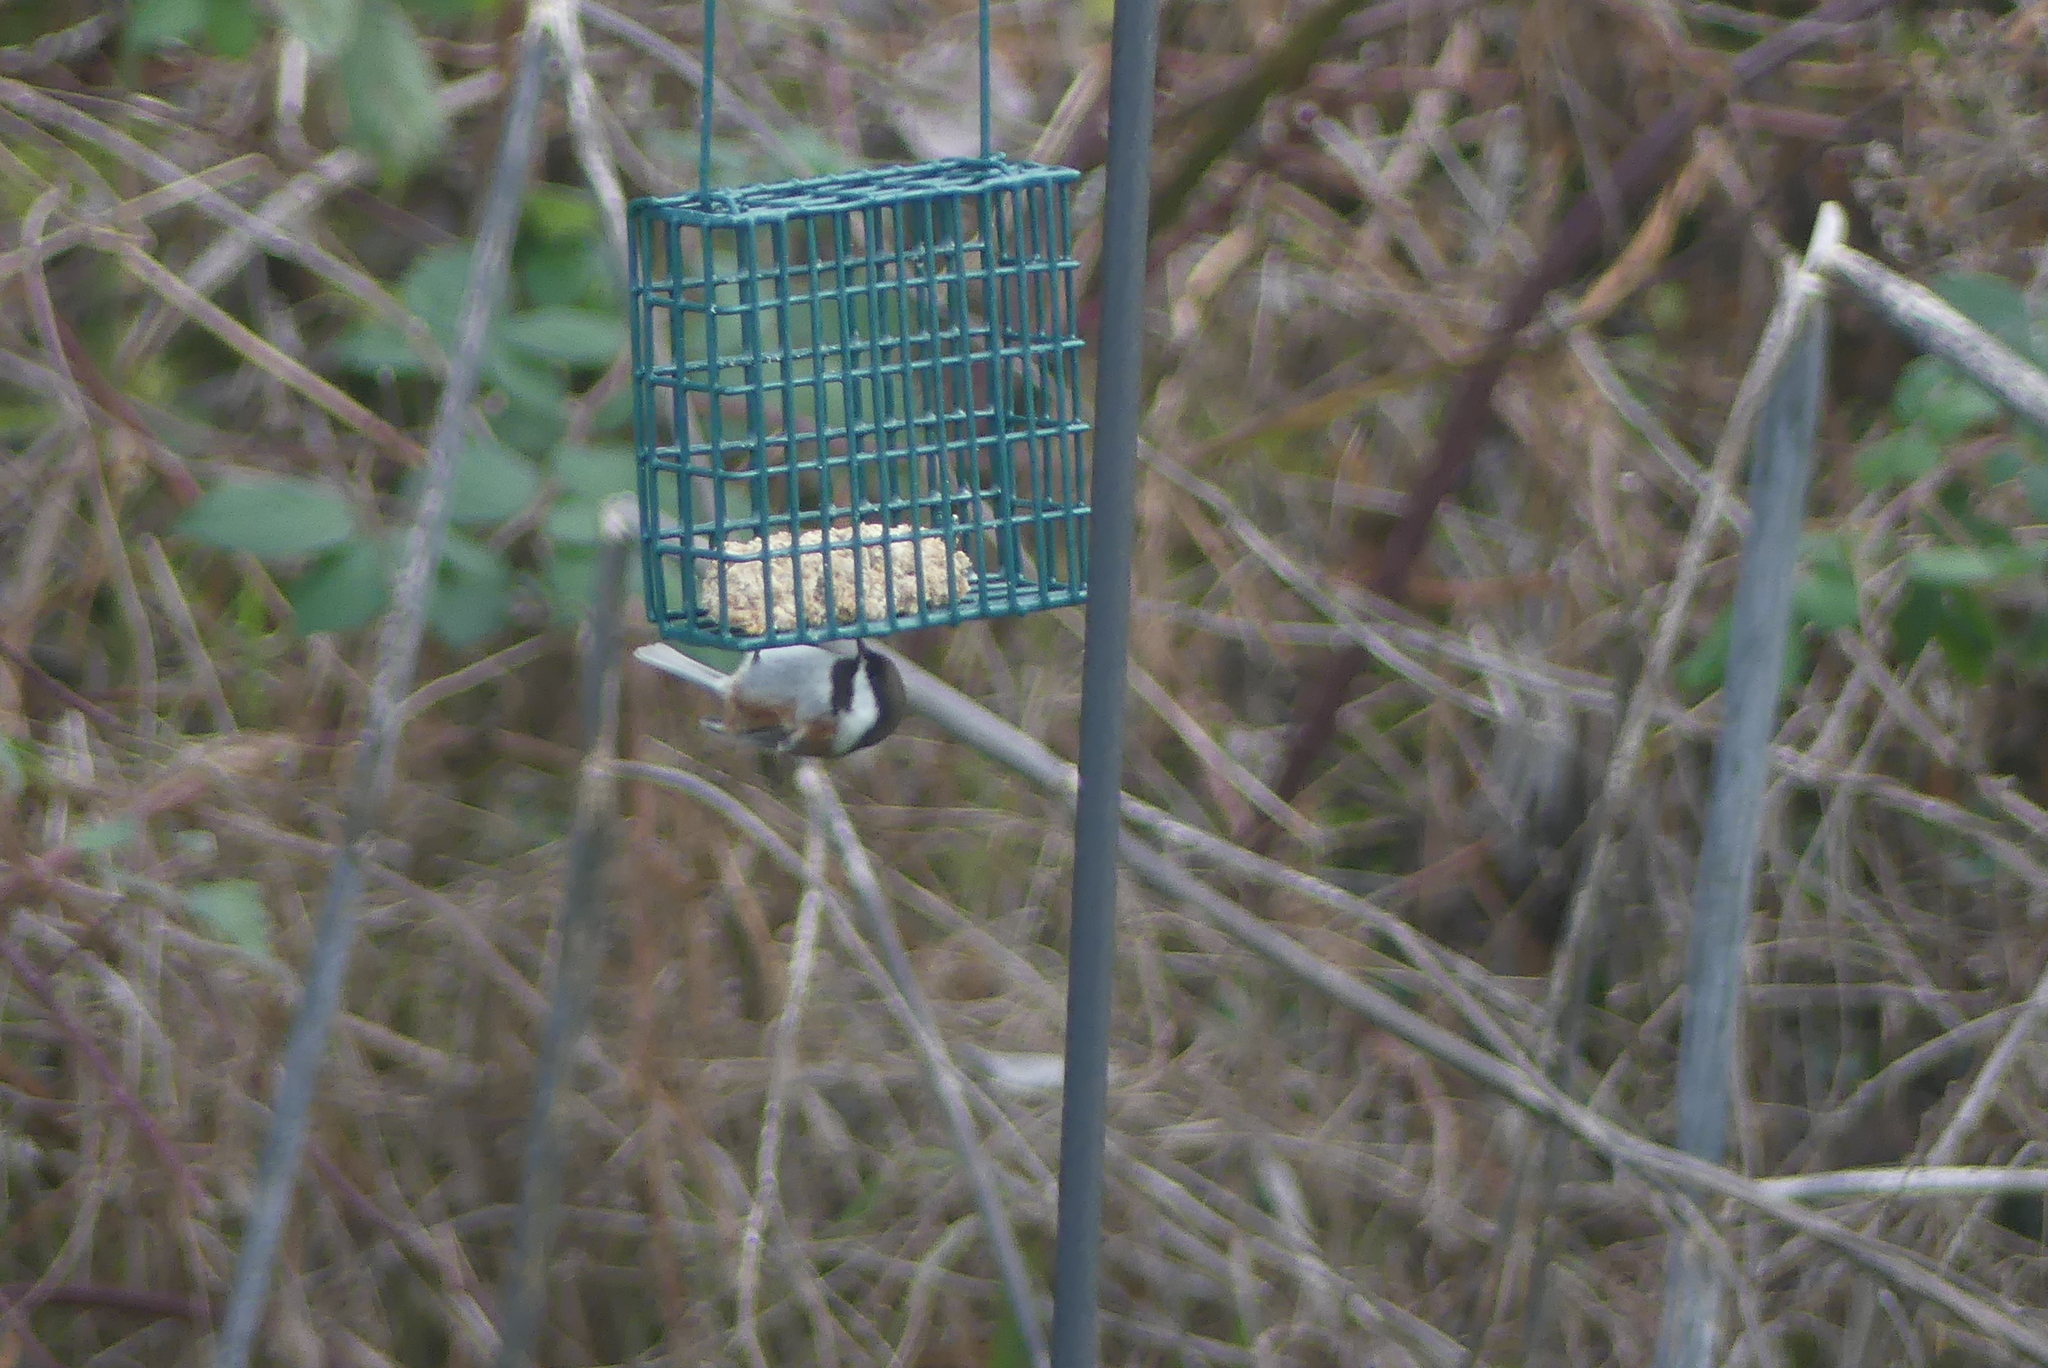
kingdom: Animalia
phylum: Chordata
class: Aves
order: Passeriformes
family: Paridae
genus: Poecile
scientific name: Poecile rufescens
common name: Chestnut-backed chickadee
